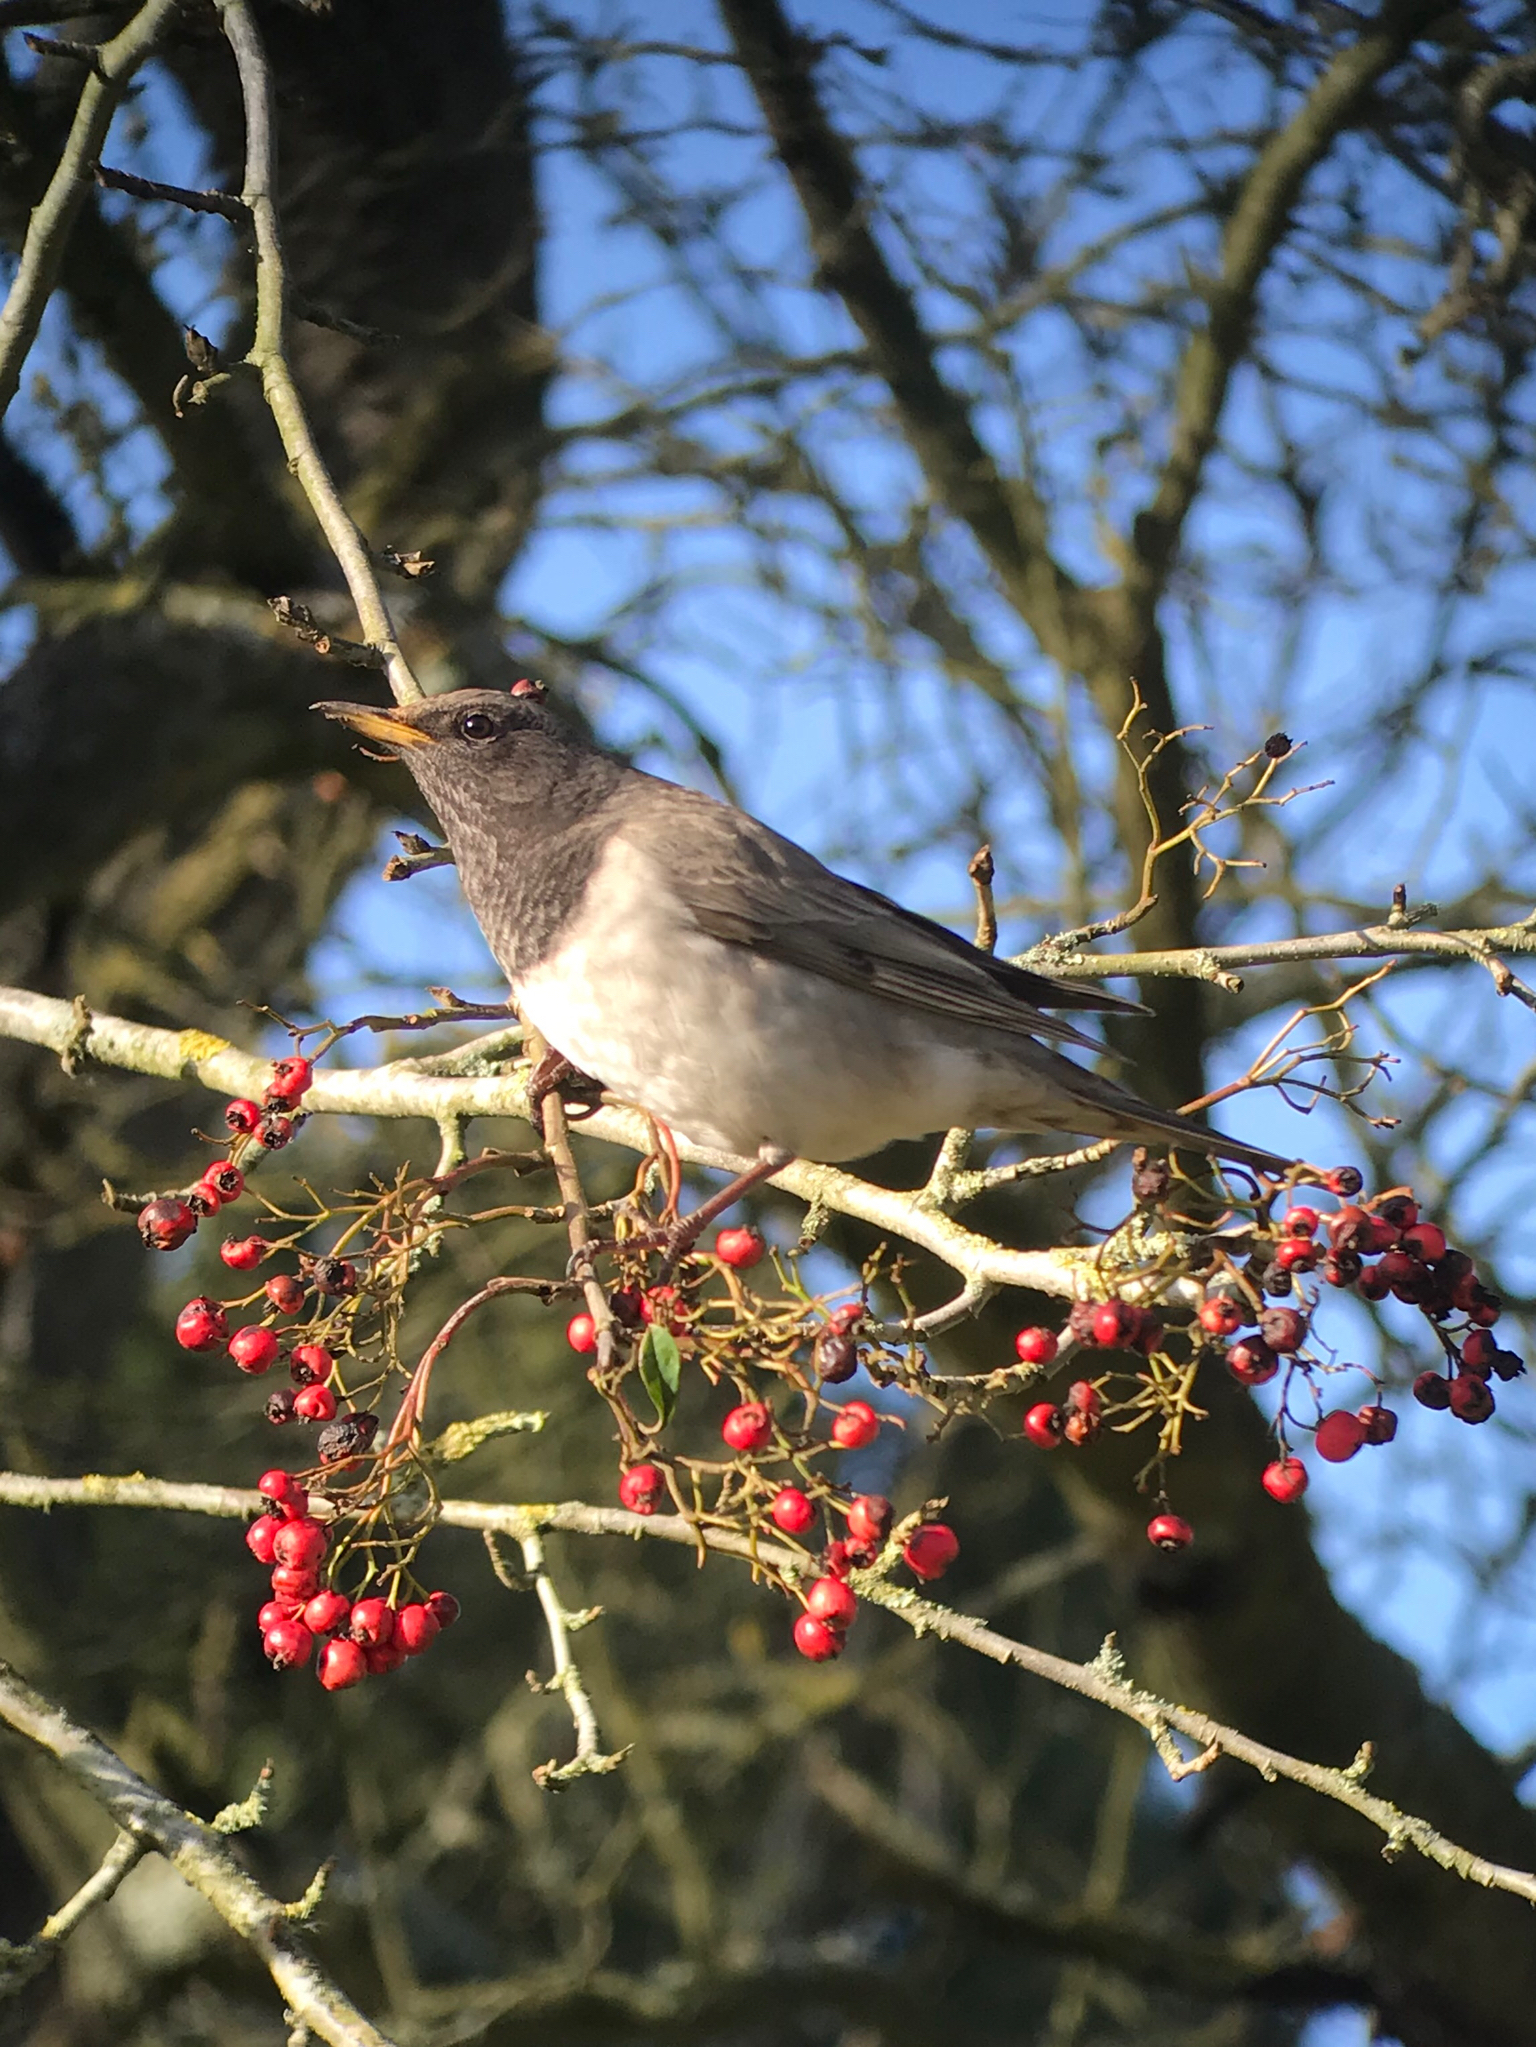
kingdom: Animalia
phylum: Chordata
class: Aves
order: Passeriformes
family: Turdidae
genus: Turdus
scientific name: Turdus atrogularis
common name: Black-throated thrush
